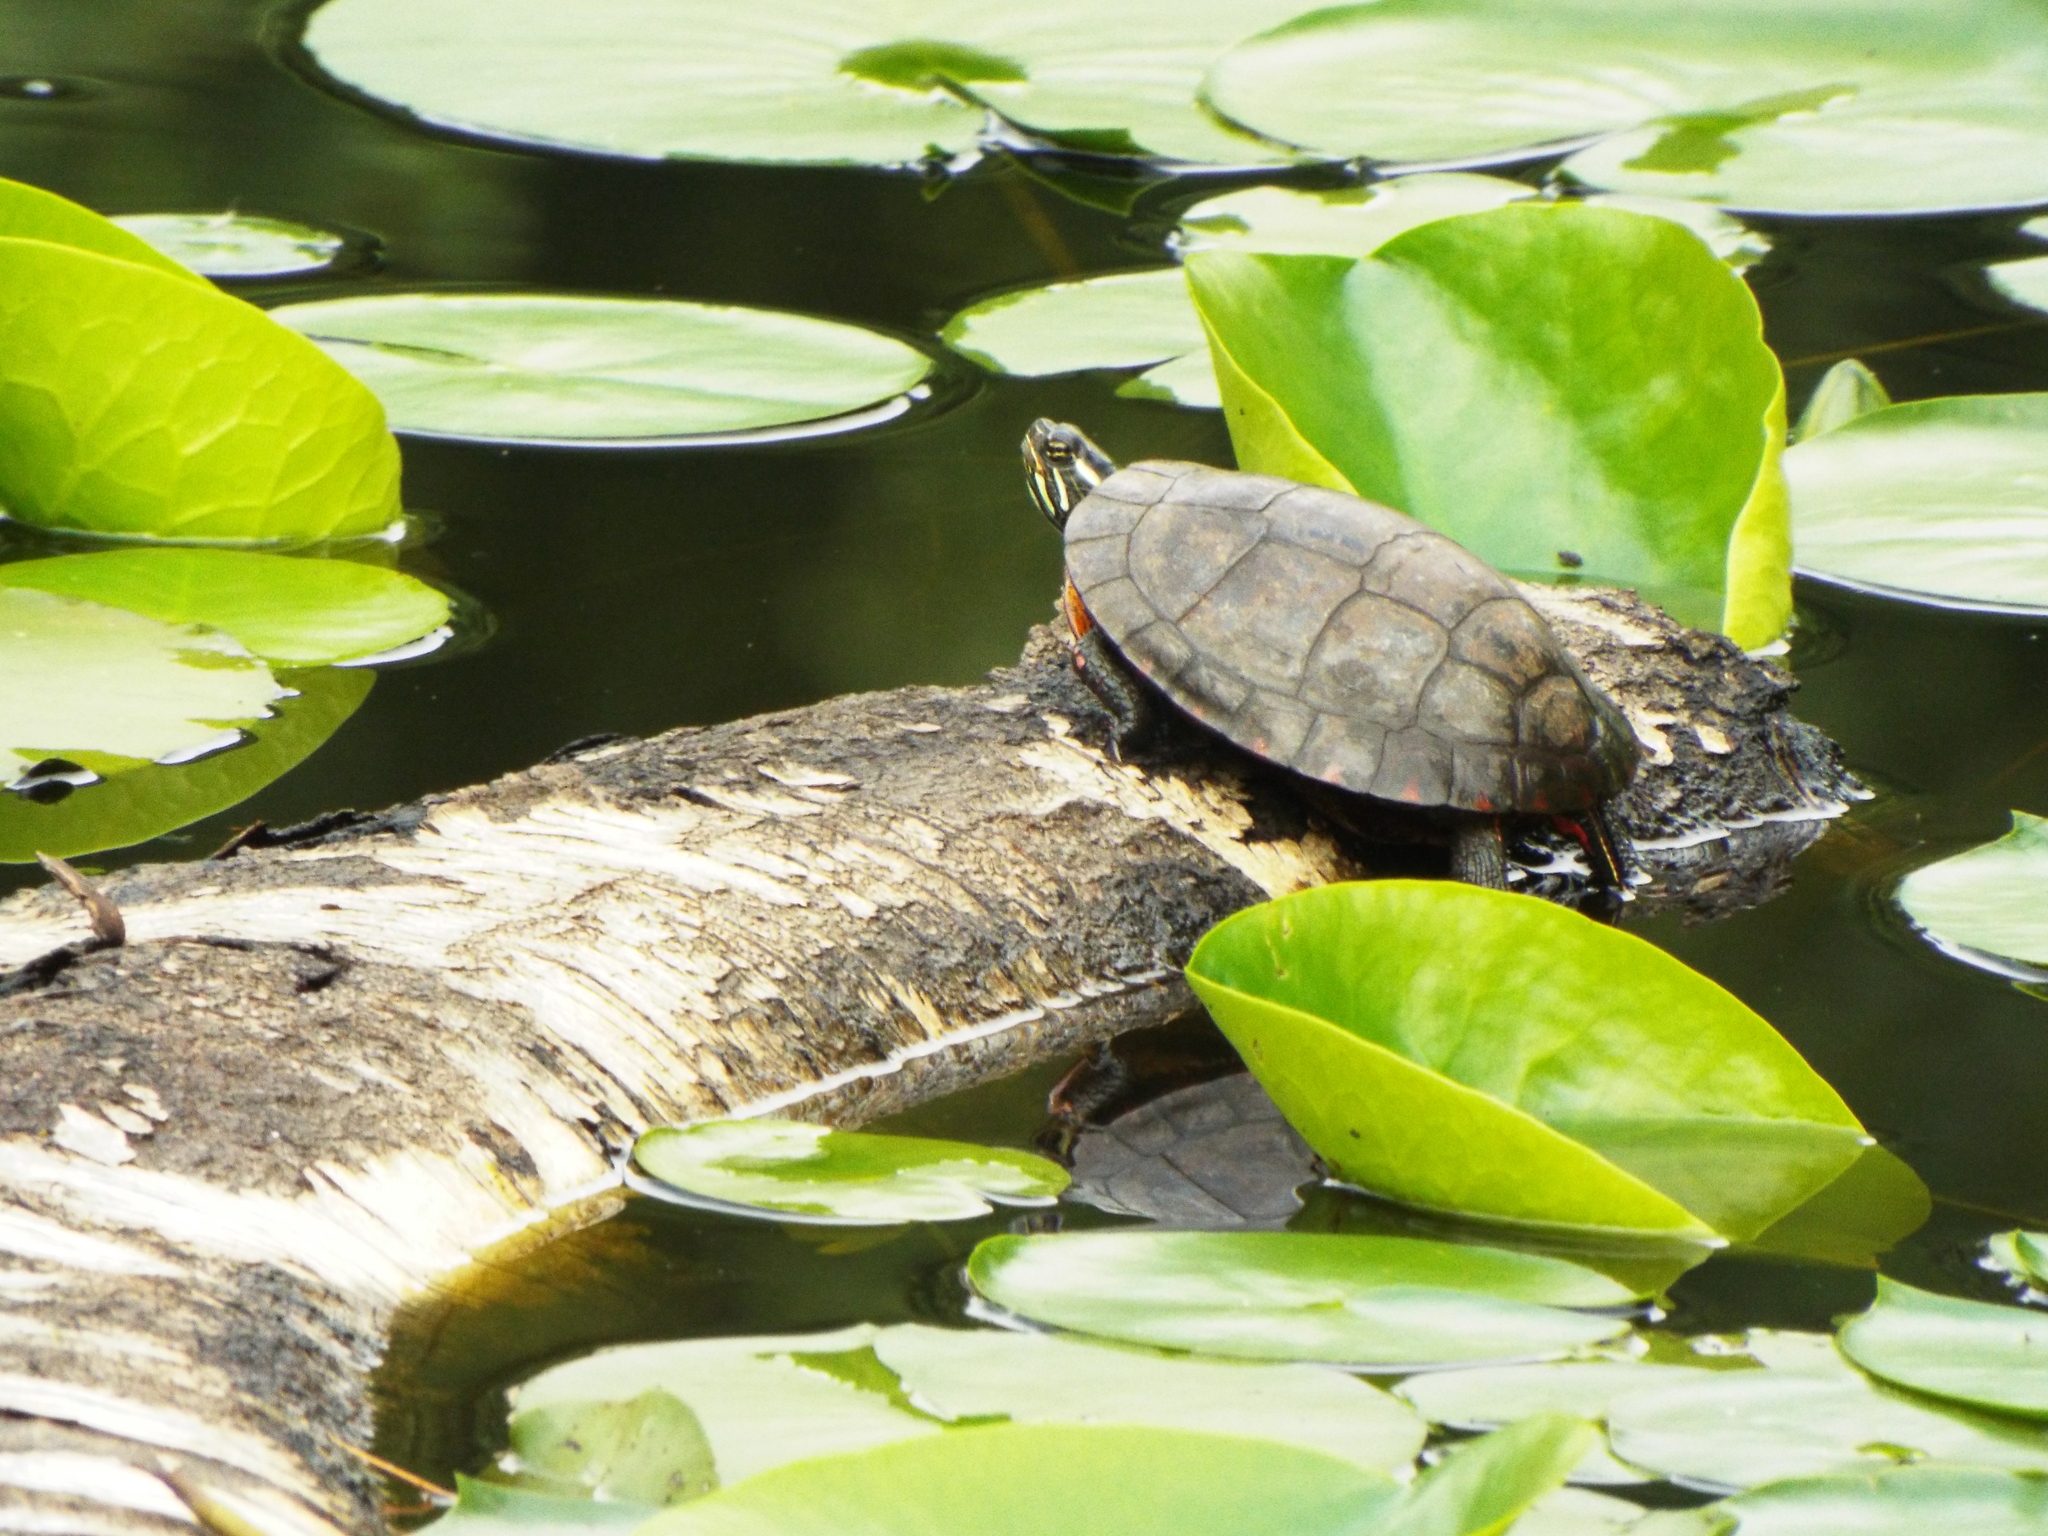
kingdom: Animalia
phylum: Chordata
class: Testudines
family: Emydidae
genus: Chrysemys
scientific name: Chrysemys picta
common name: Painted turtle
